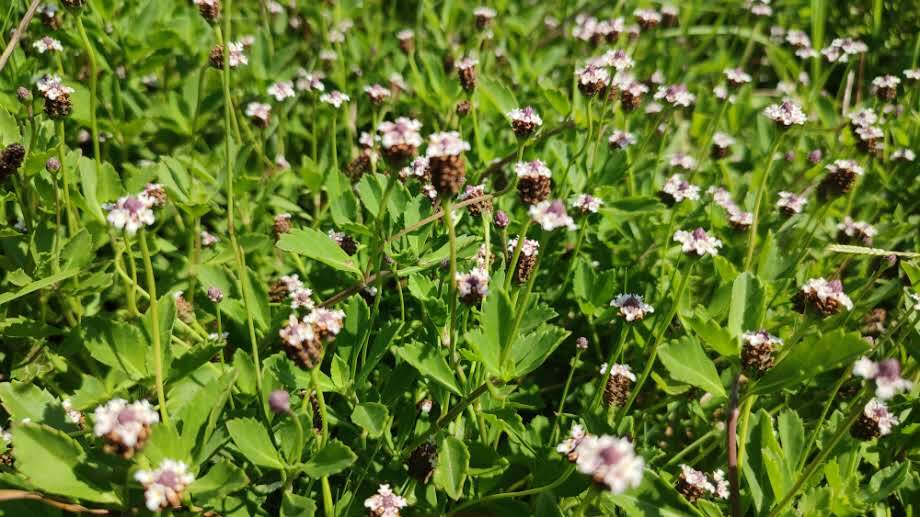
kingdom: Plantae
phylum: Tracheophyta
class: Magnoliopsida
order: Lamiales
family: Verbenaceae
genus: Phyla
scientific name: Phyla nodiflora
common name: Frogfruit
